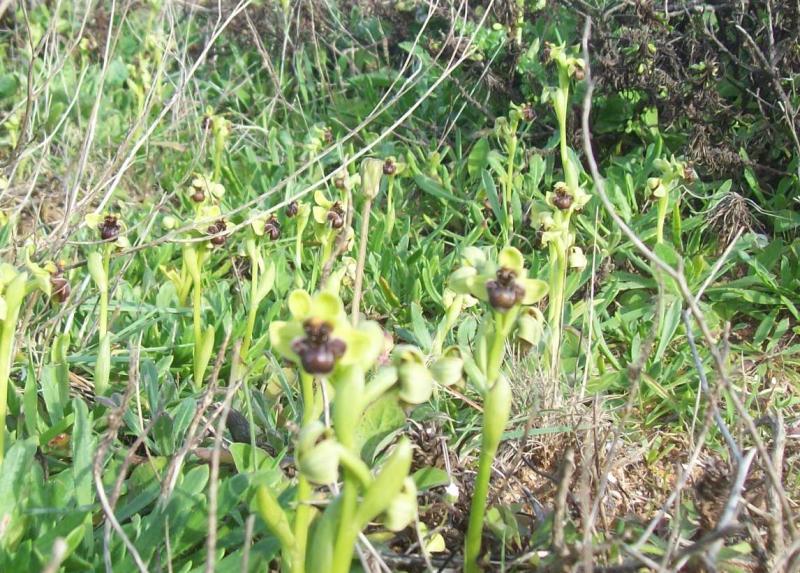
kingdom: Plantae
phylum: Tracheophyta
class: Liliopsida
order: Asparagales
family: Orchidaceae
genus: Ophrys
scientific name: Ophrys bombyliflora
